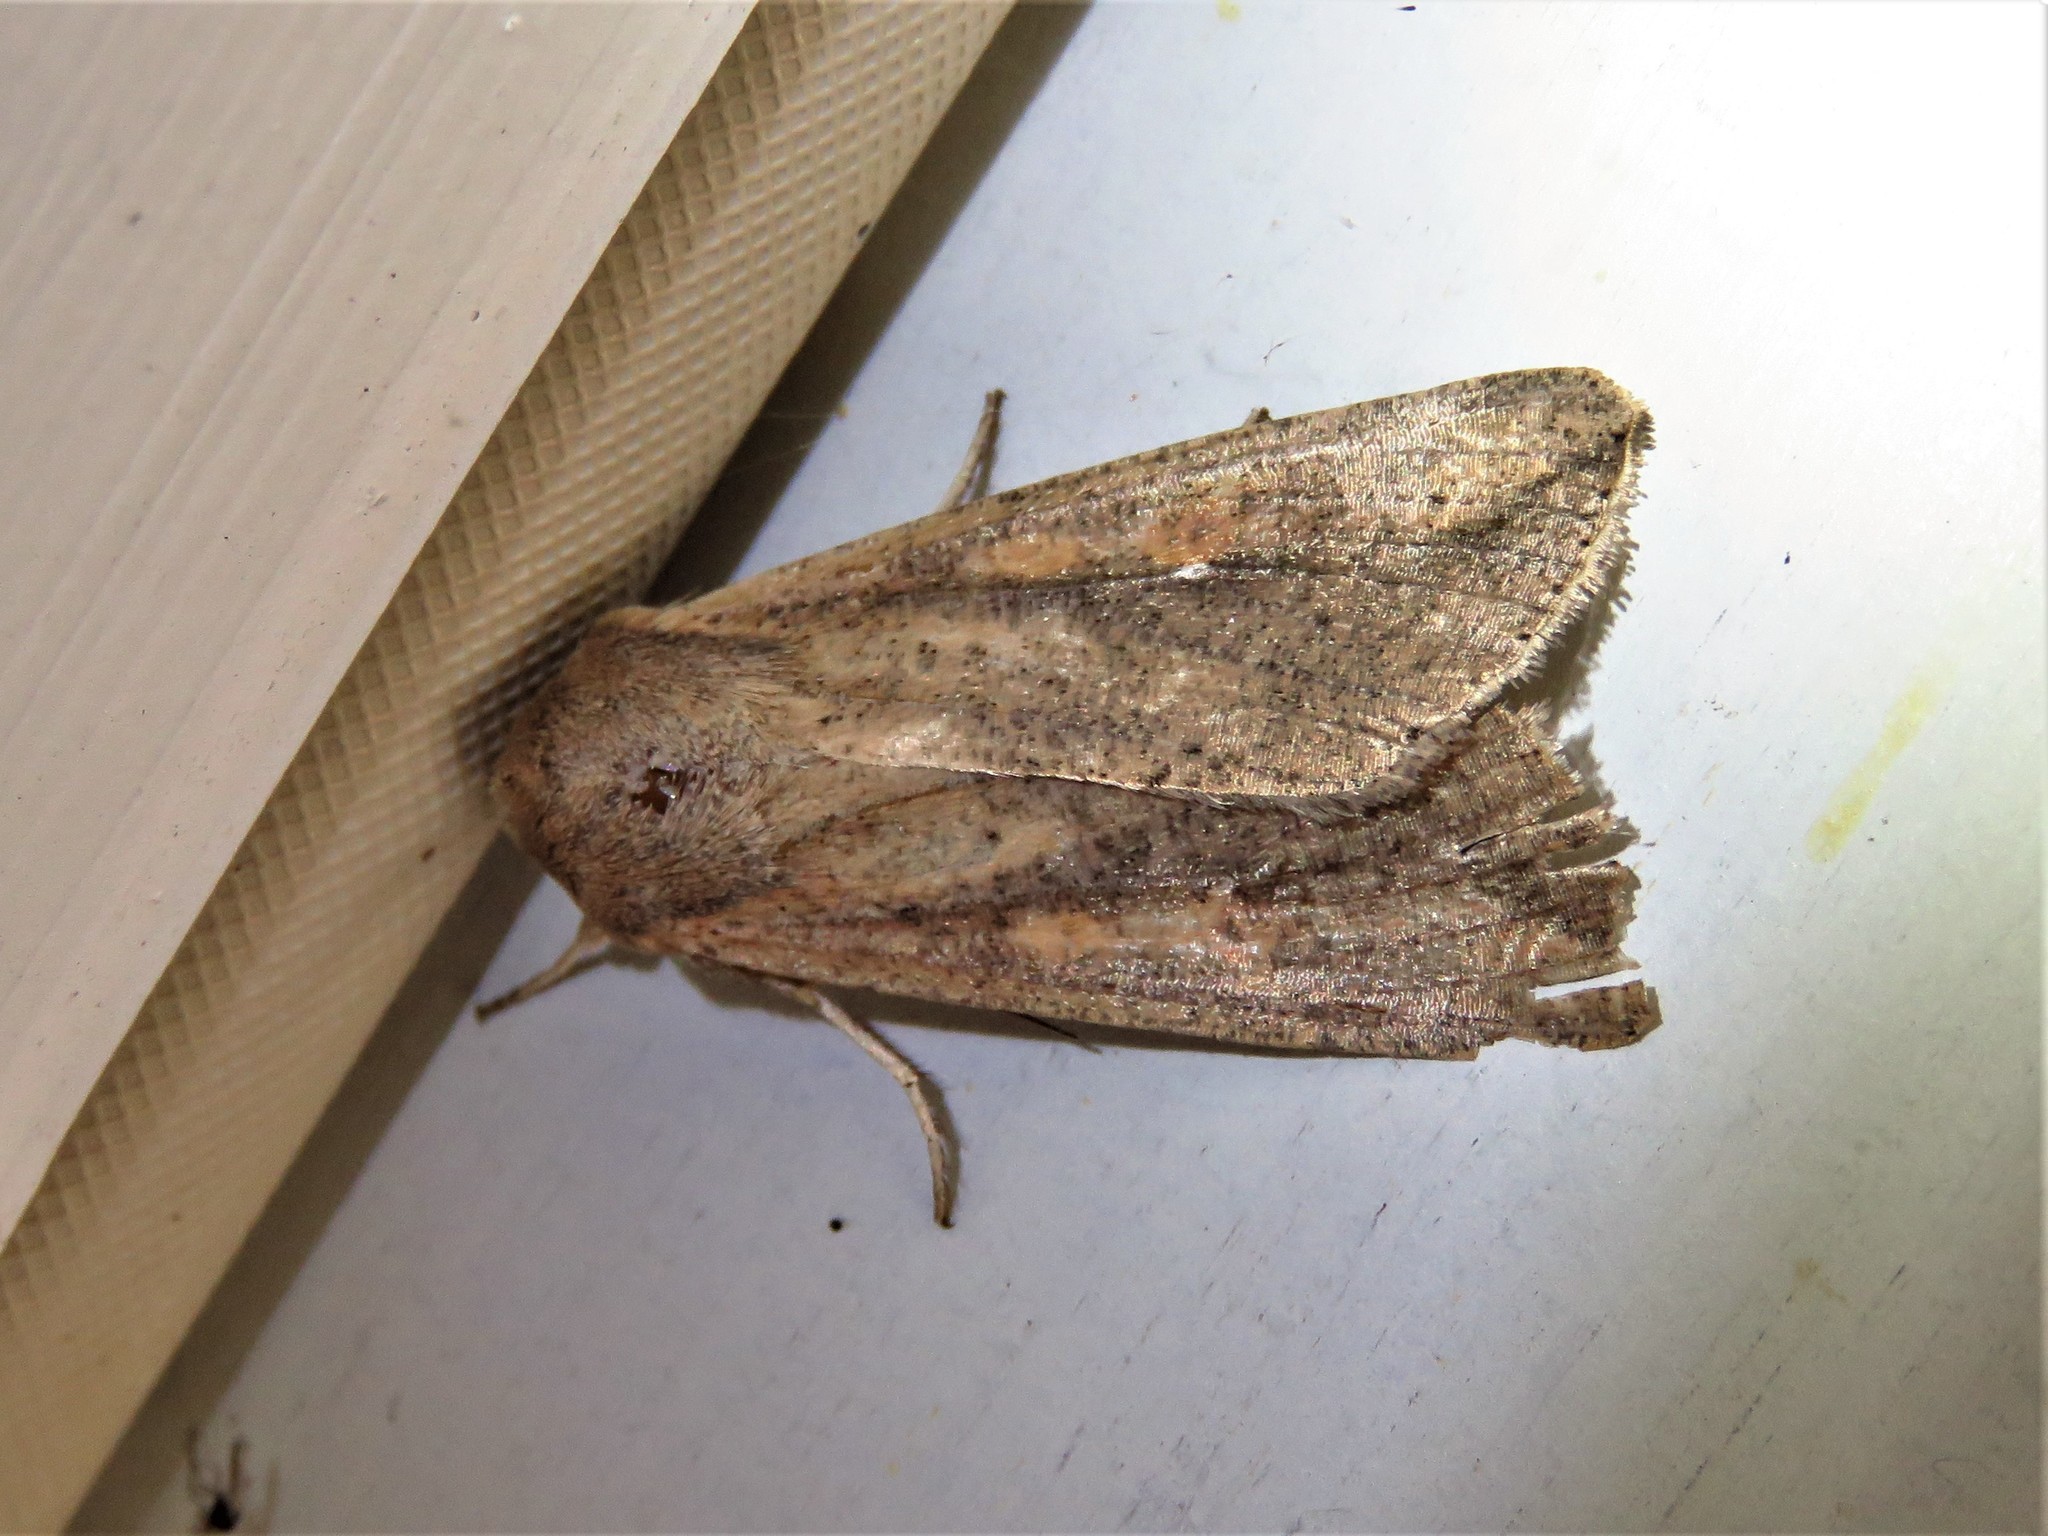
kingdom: Animalia
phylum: Arthropoda
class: Insecta
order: Lepidoptera
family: Noctuidae
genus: Mythimna
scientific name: Mythimna unipuncta
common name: White-speck
